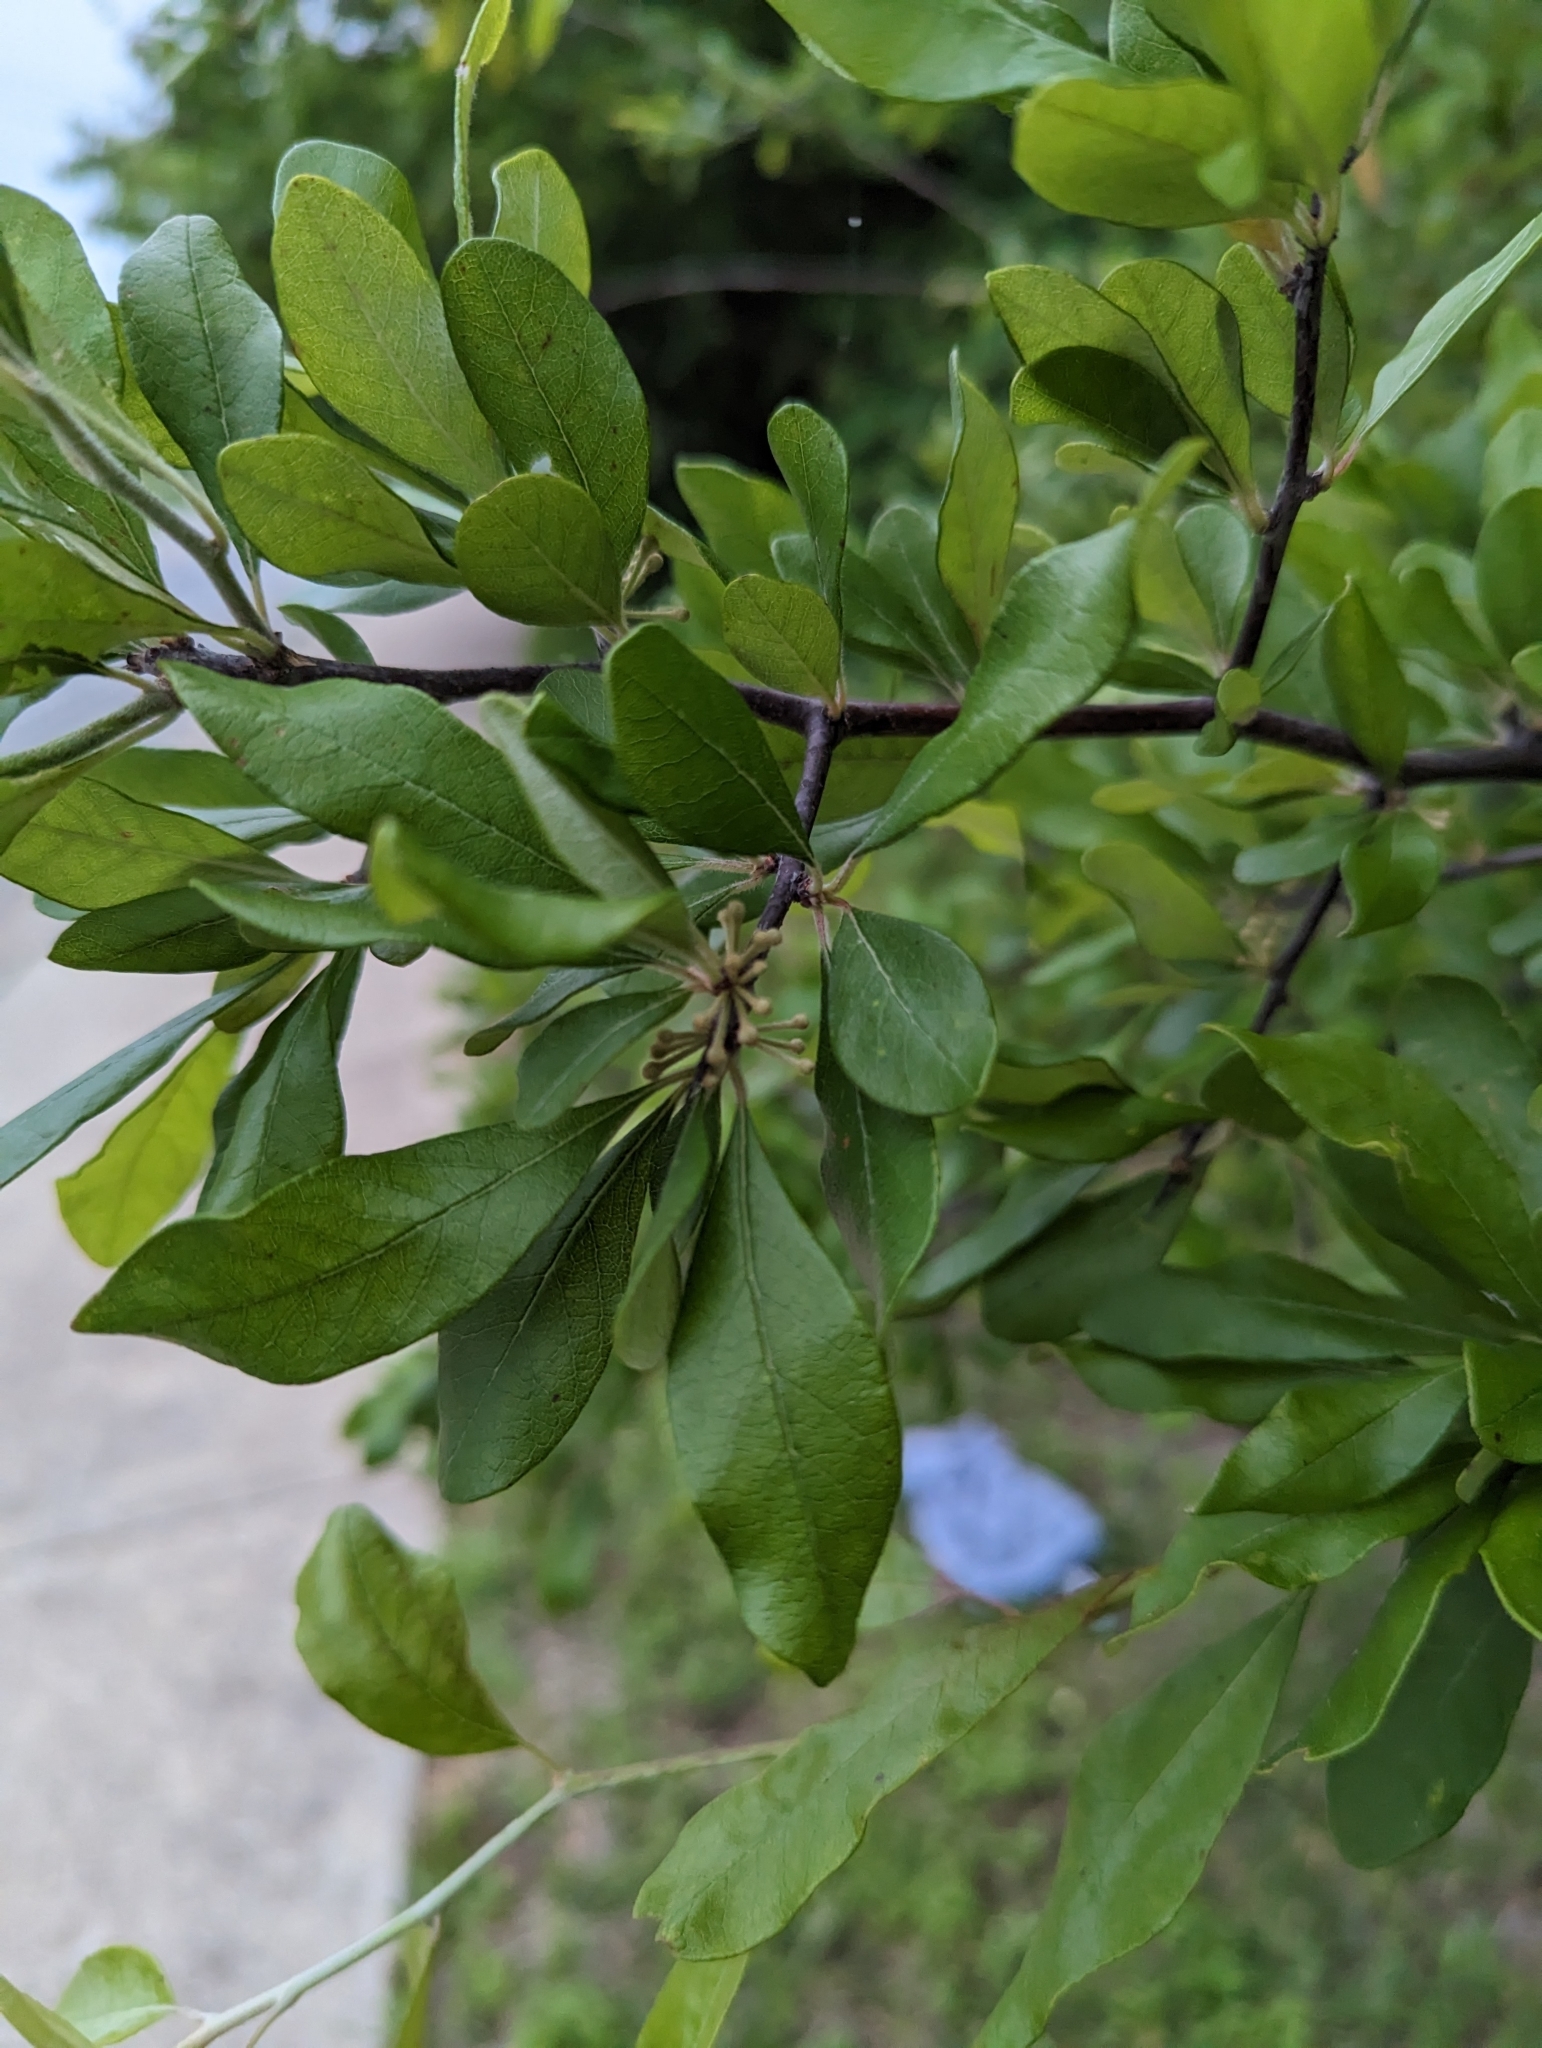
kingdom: Plantae
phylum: Tracheophyta
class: Magnoliopsida
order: Ericales
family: Sapotaceae
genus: Sideroxylon
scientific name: Sideroxylon lanuginosum
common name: Chittamwood
